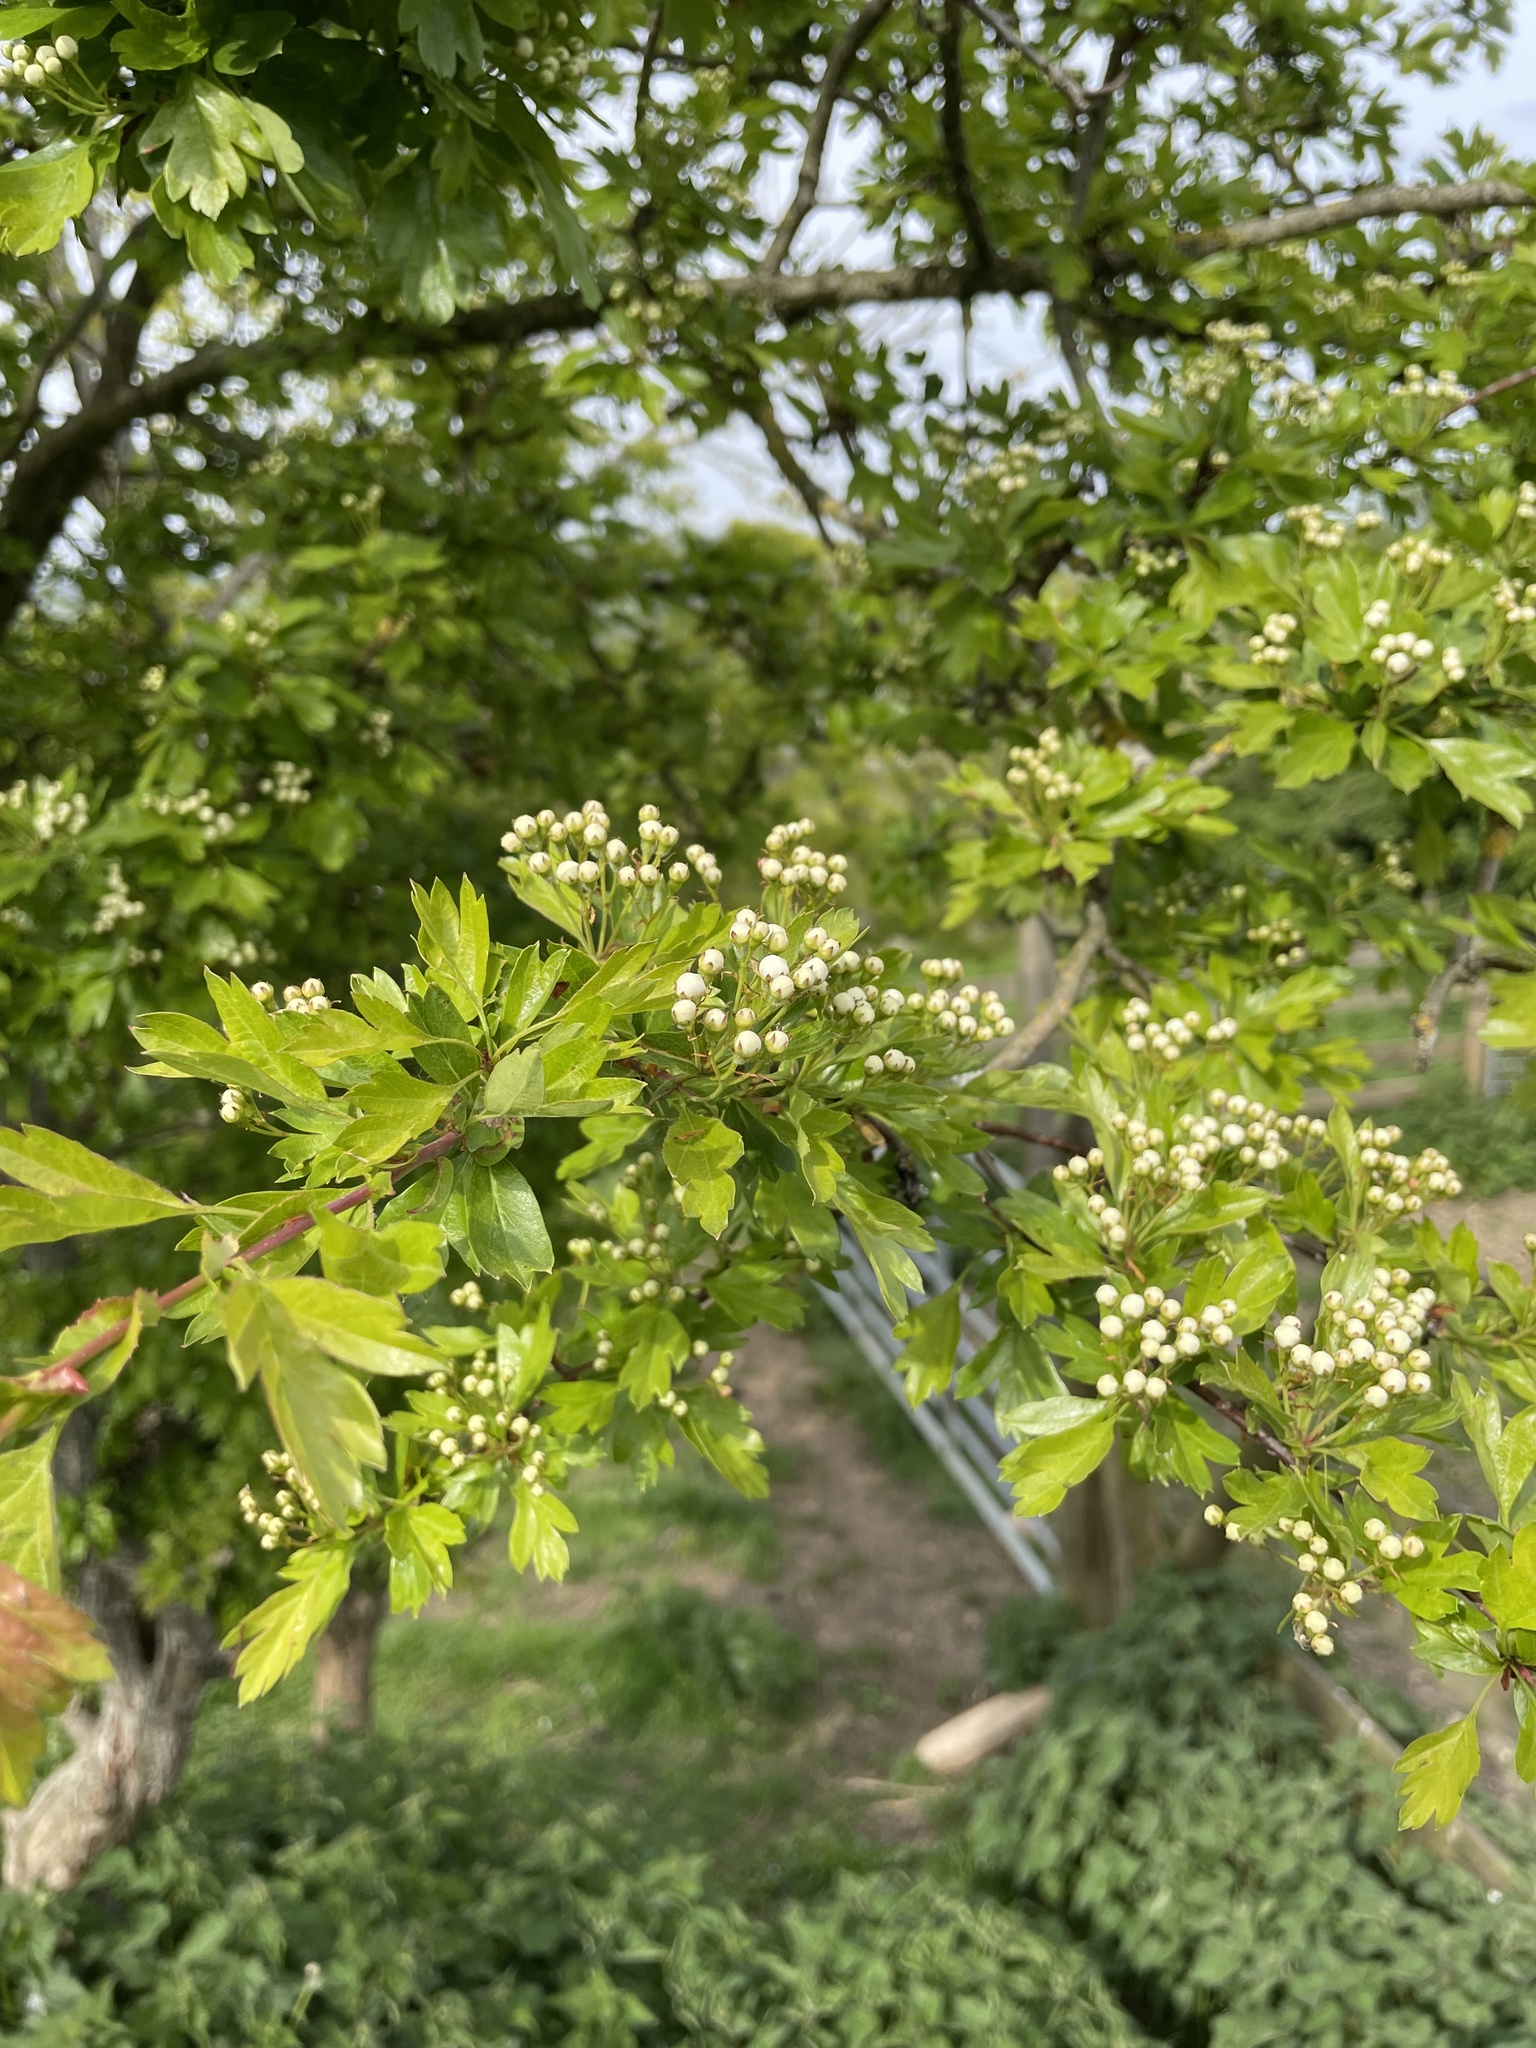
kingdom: Plantae
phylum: Tracheophyta
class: Magnoliopsida
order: Rosales
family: Rosaceae
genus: Crataegus
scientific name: Crataegus monogyna
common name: Hawthorn
